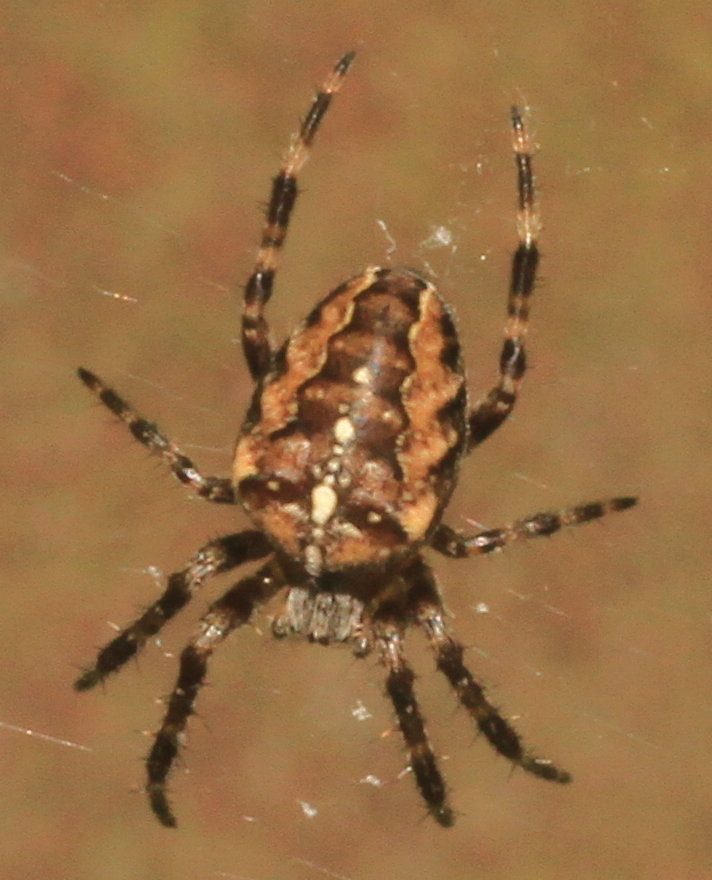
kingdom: Animalia
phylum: Arthropoda
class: Arachnida
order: Araneae
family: Araneidae
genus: Araneus
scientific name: Araneus diadematus
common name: Cross orbweaver
